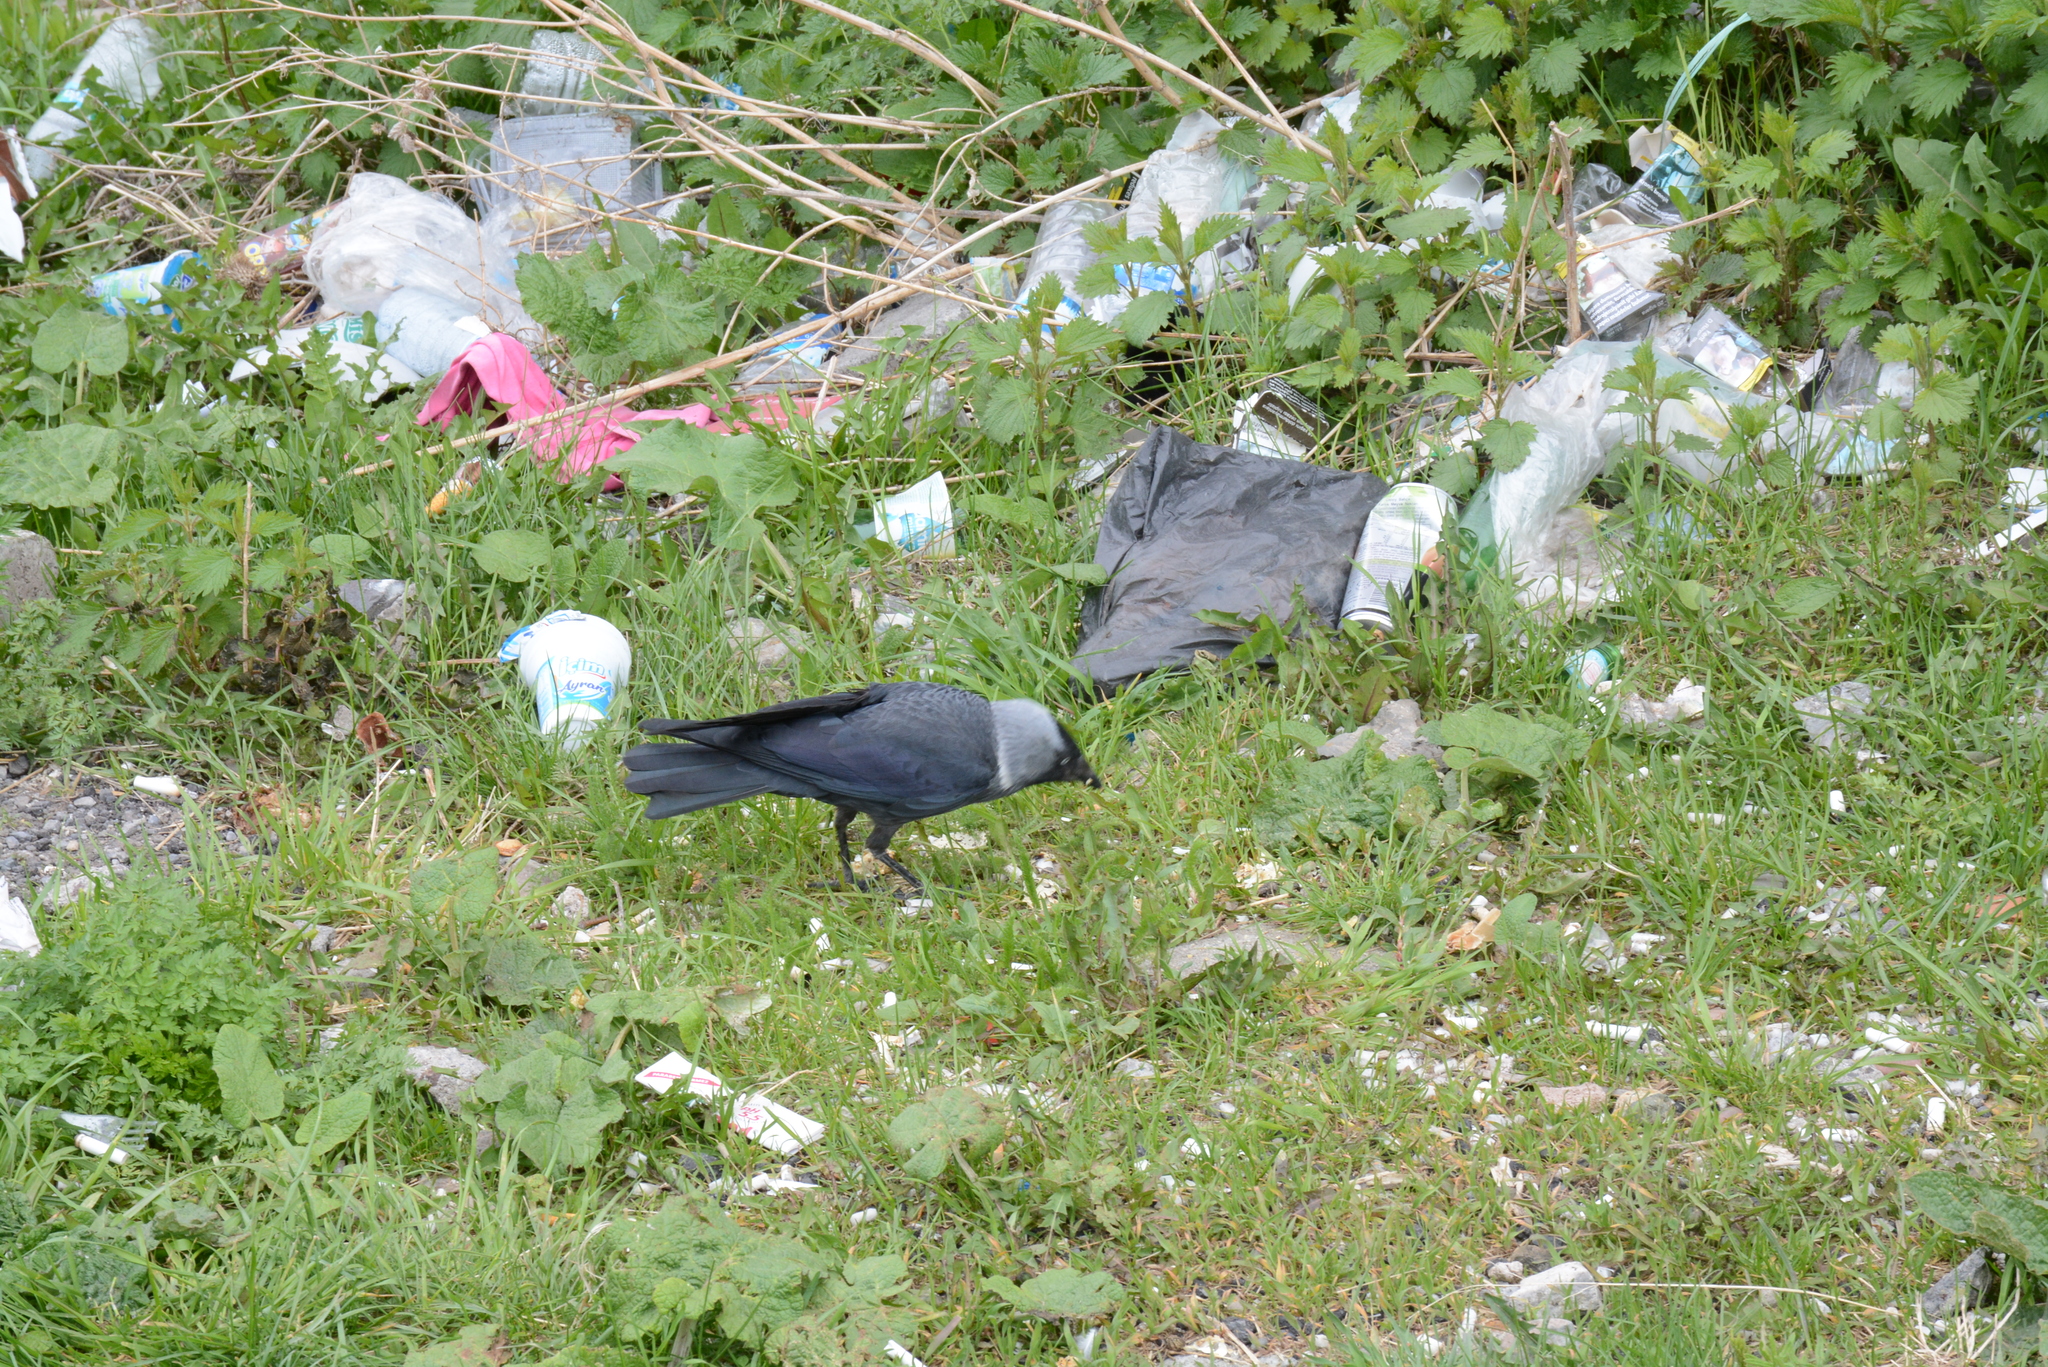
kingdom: Animalia
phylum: Chordata
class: Aves
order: Passeriformes
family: Corvidae
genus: Coloeus
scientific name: Coloeus monedula
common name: Western jackdaw
